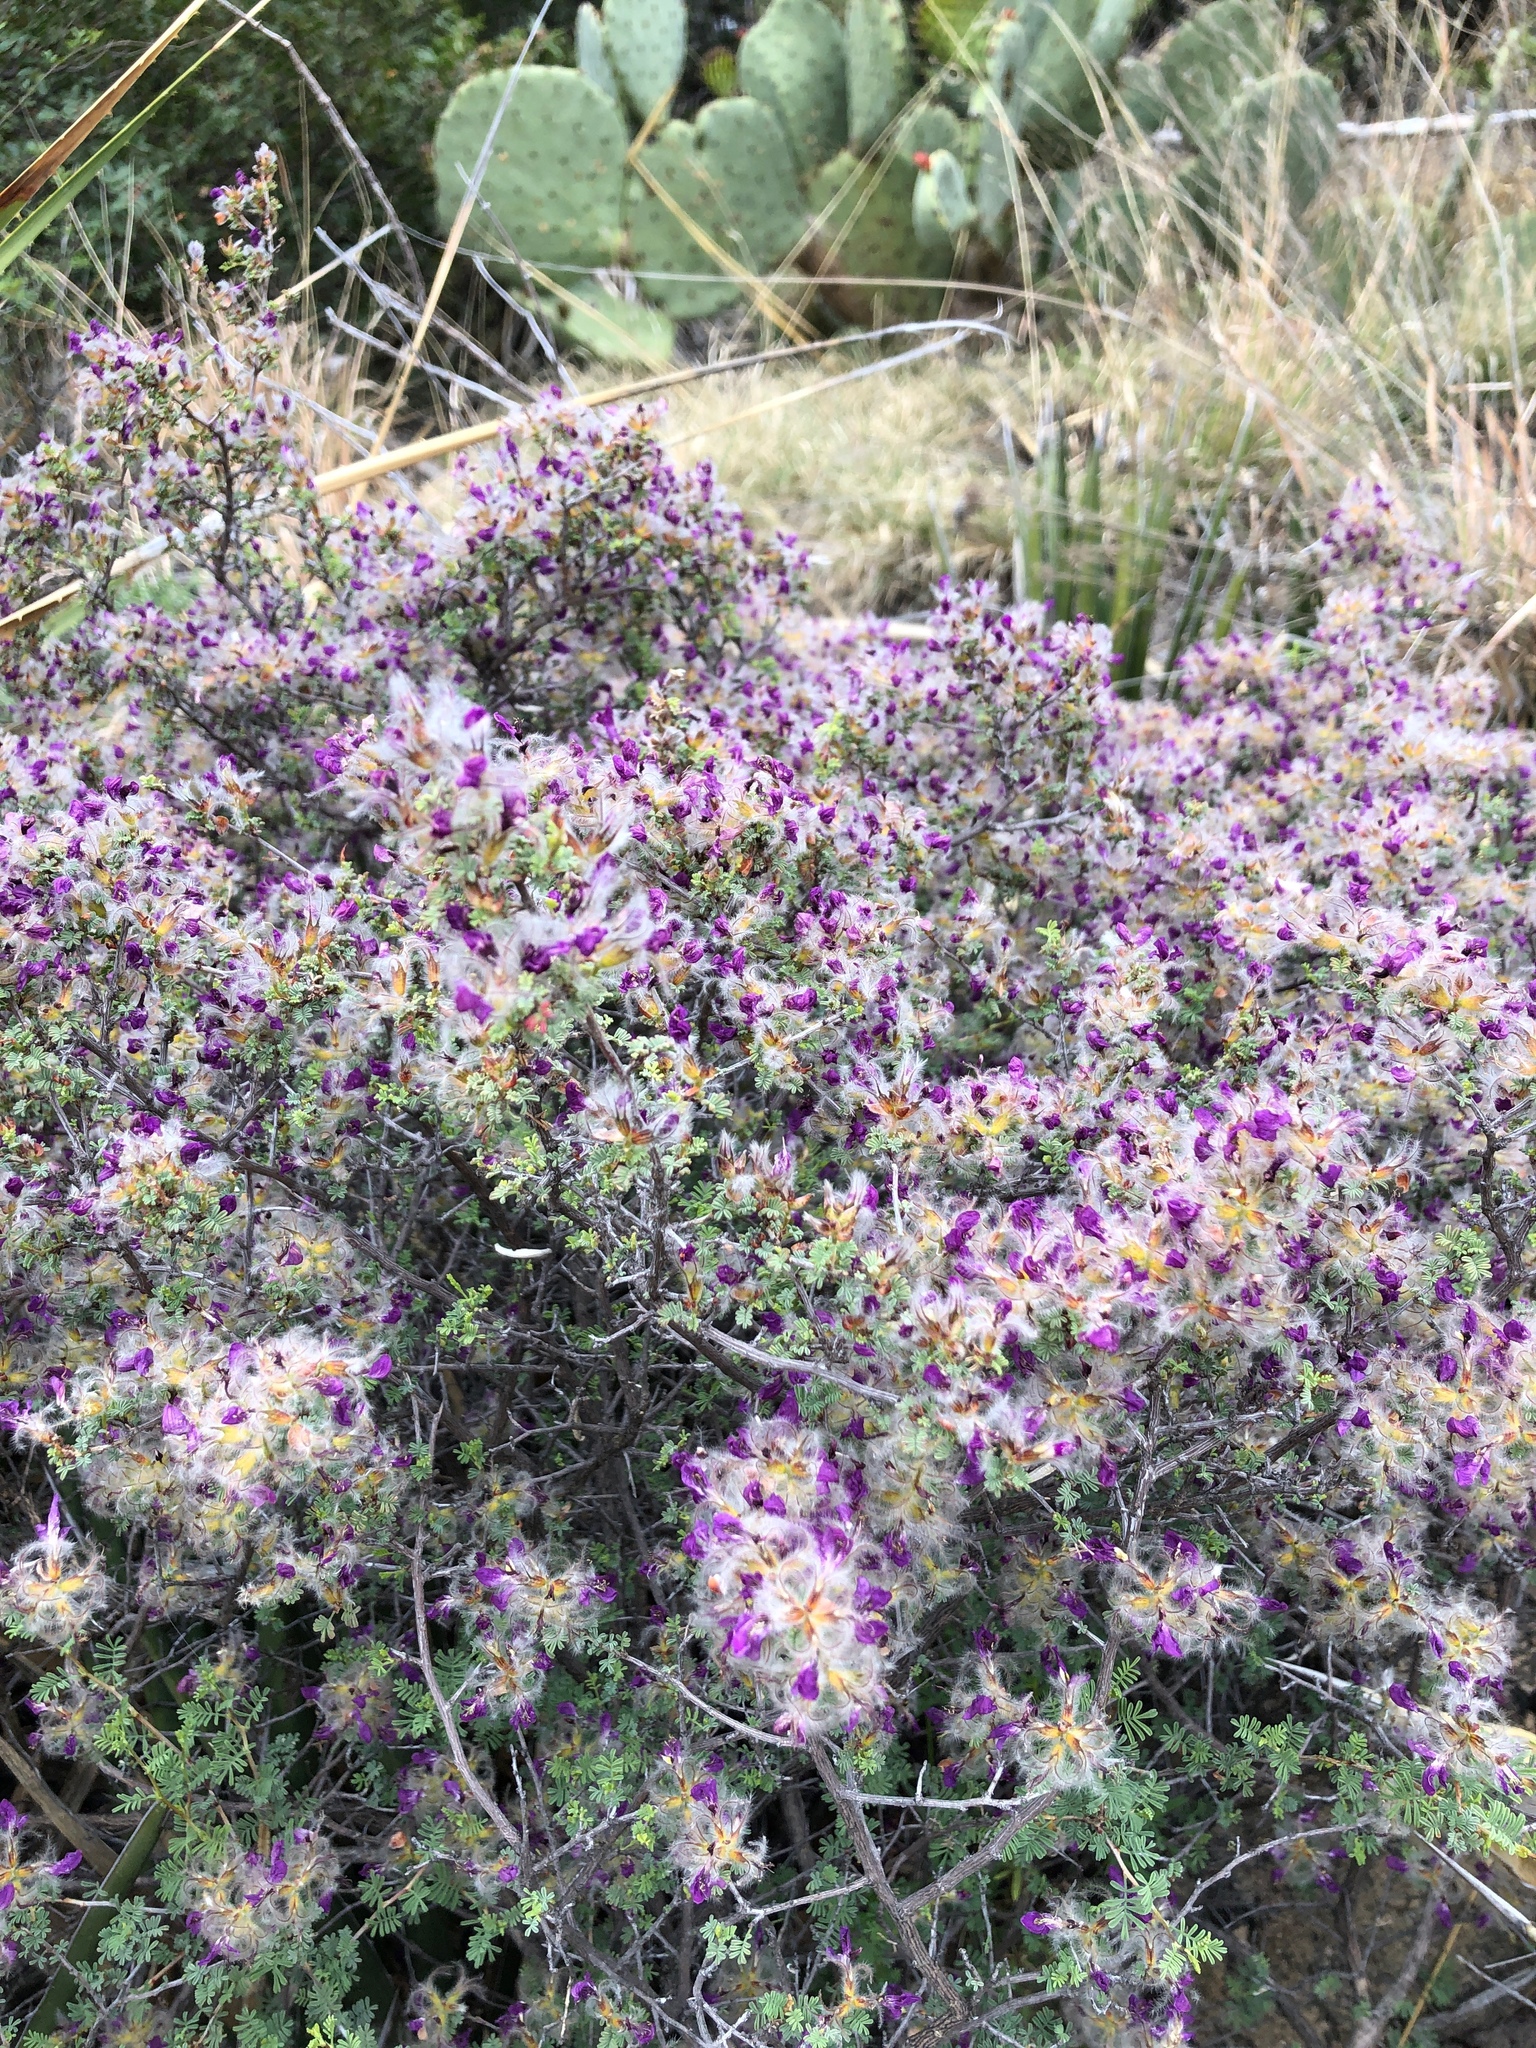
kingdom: Plantae
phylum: Tracheophyta
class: Magnoliopsida
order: Fabales
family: Fabaceae
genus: Dalea
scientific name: Dalea formosa
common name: Feather-plume dalea
